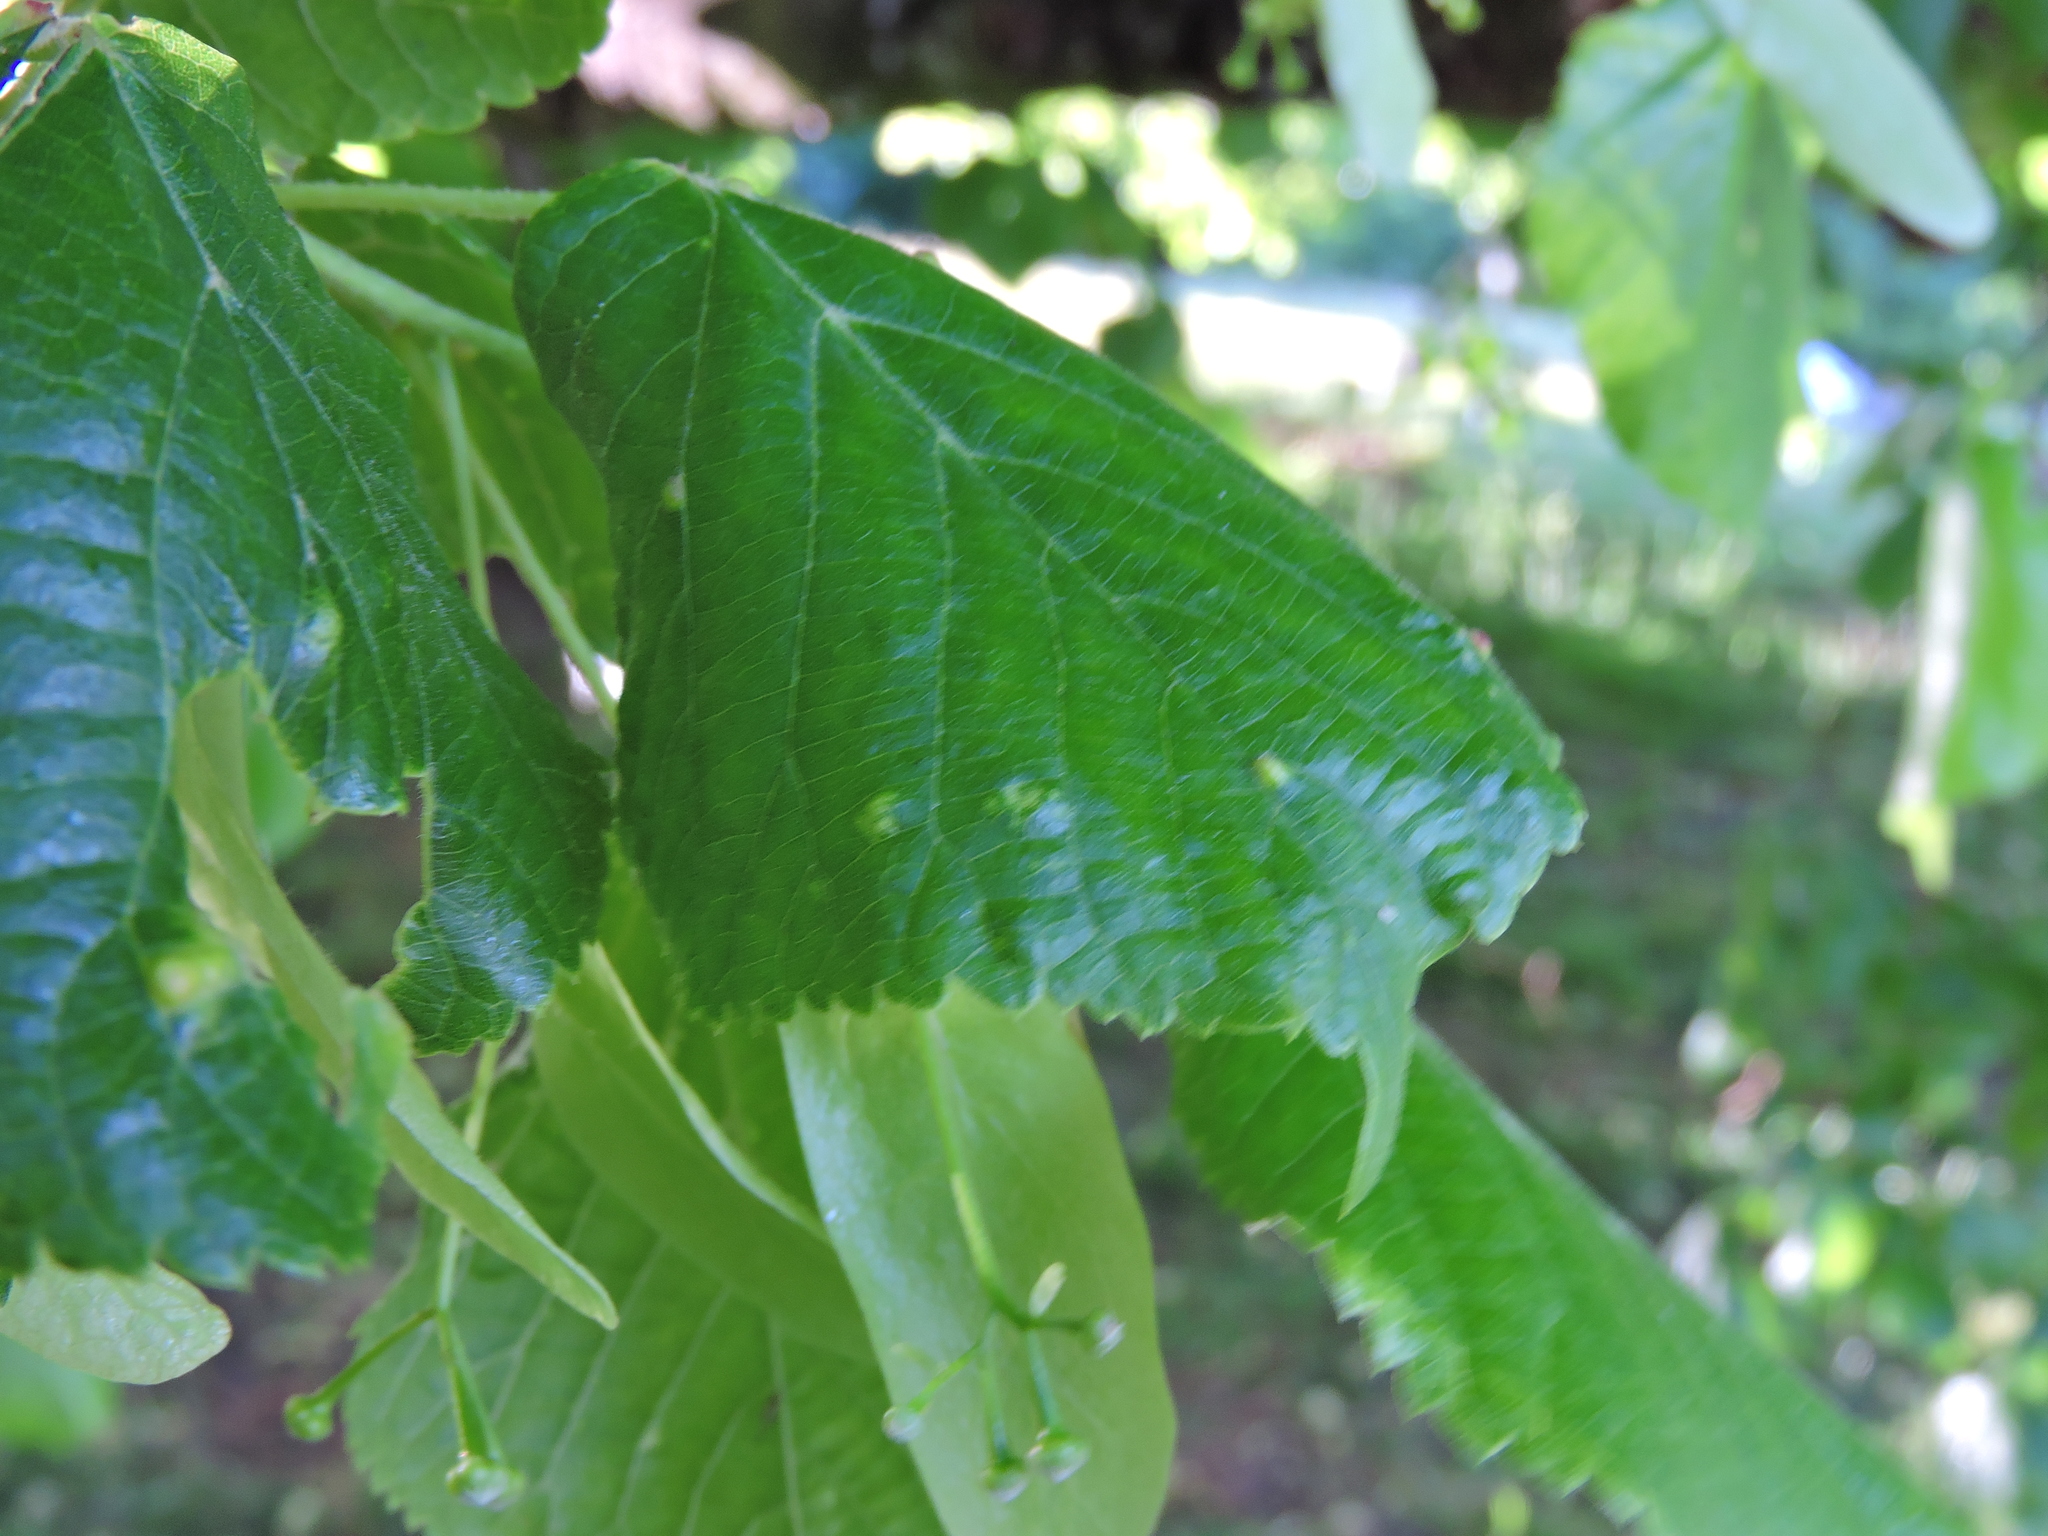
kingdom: Animalia
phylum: Arthropoda
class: Arachnida
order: Trombidiformes
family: Eriophyidae
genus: Eriophyes
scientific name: Eriophyes exilis
